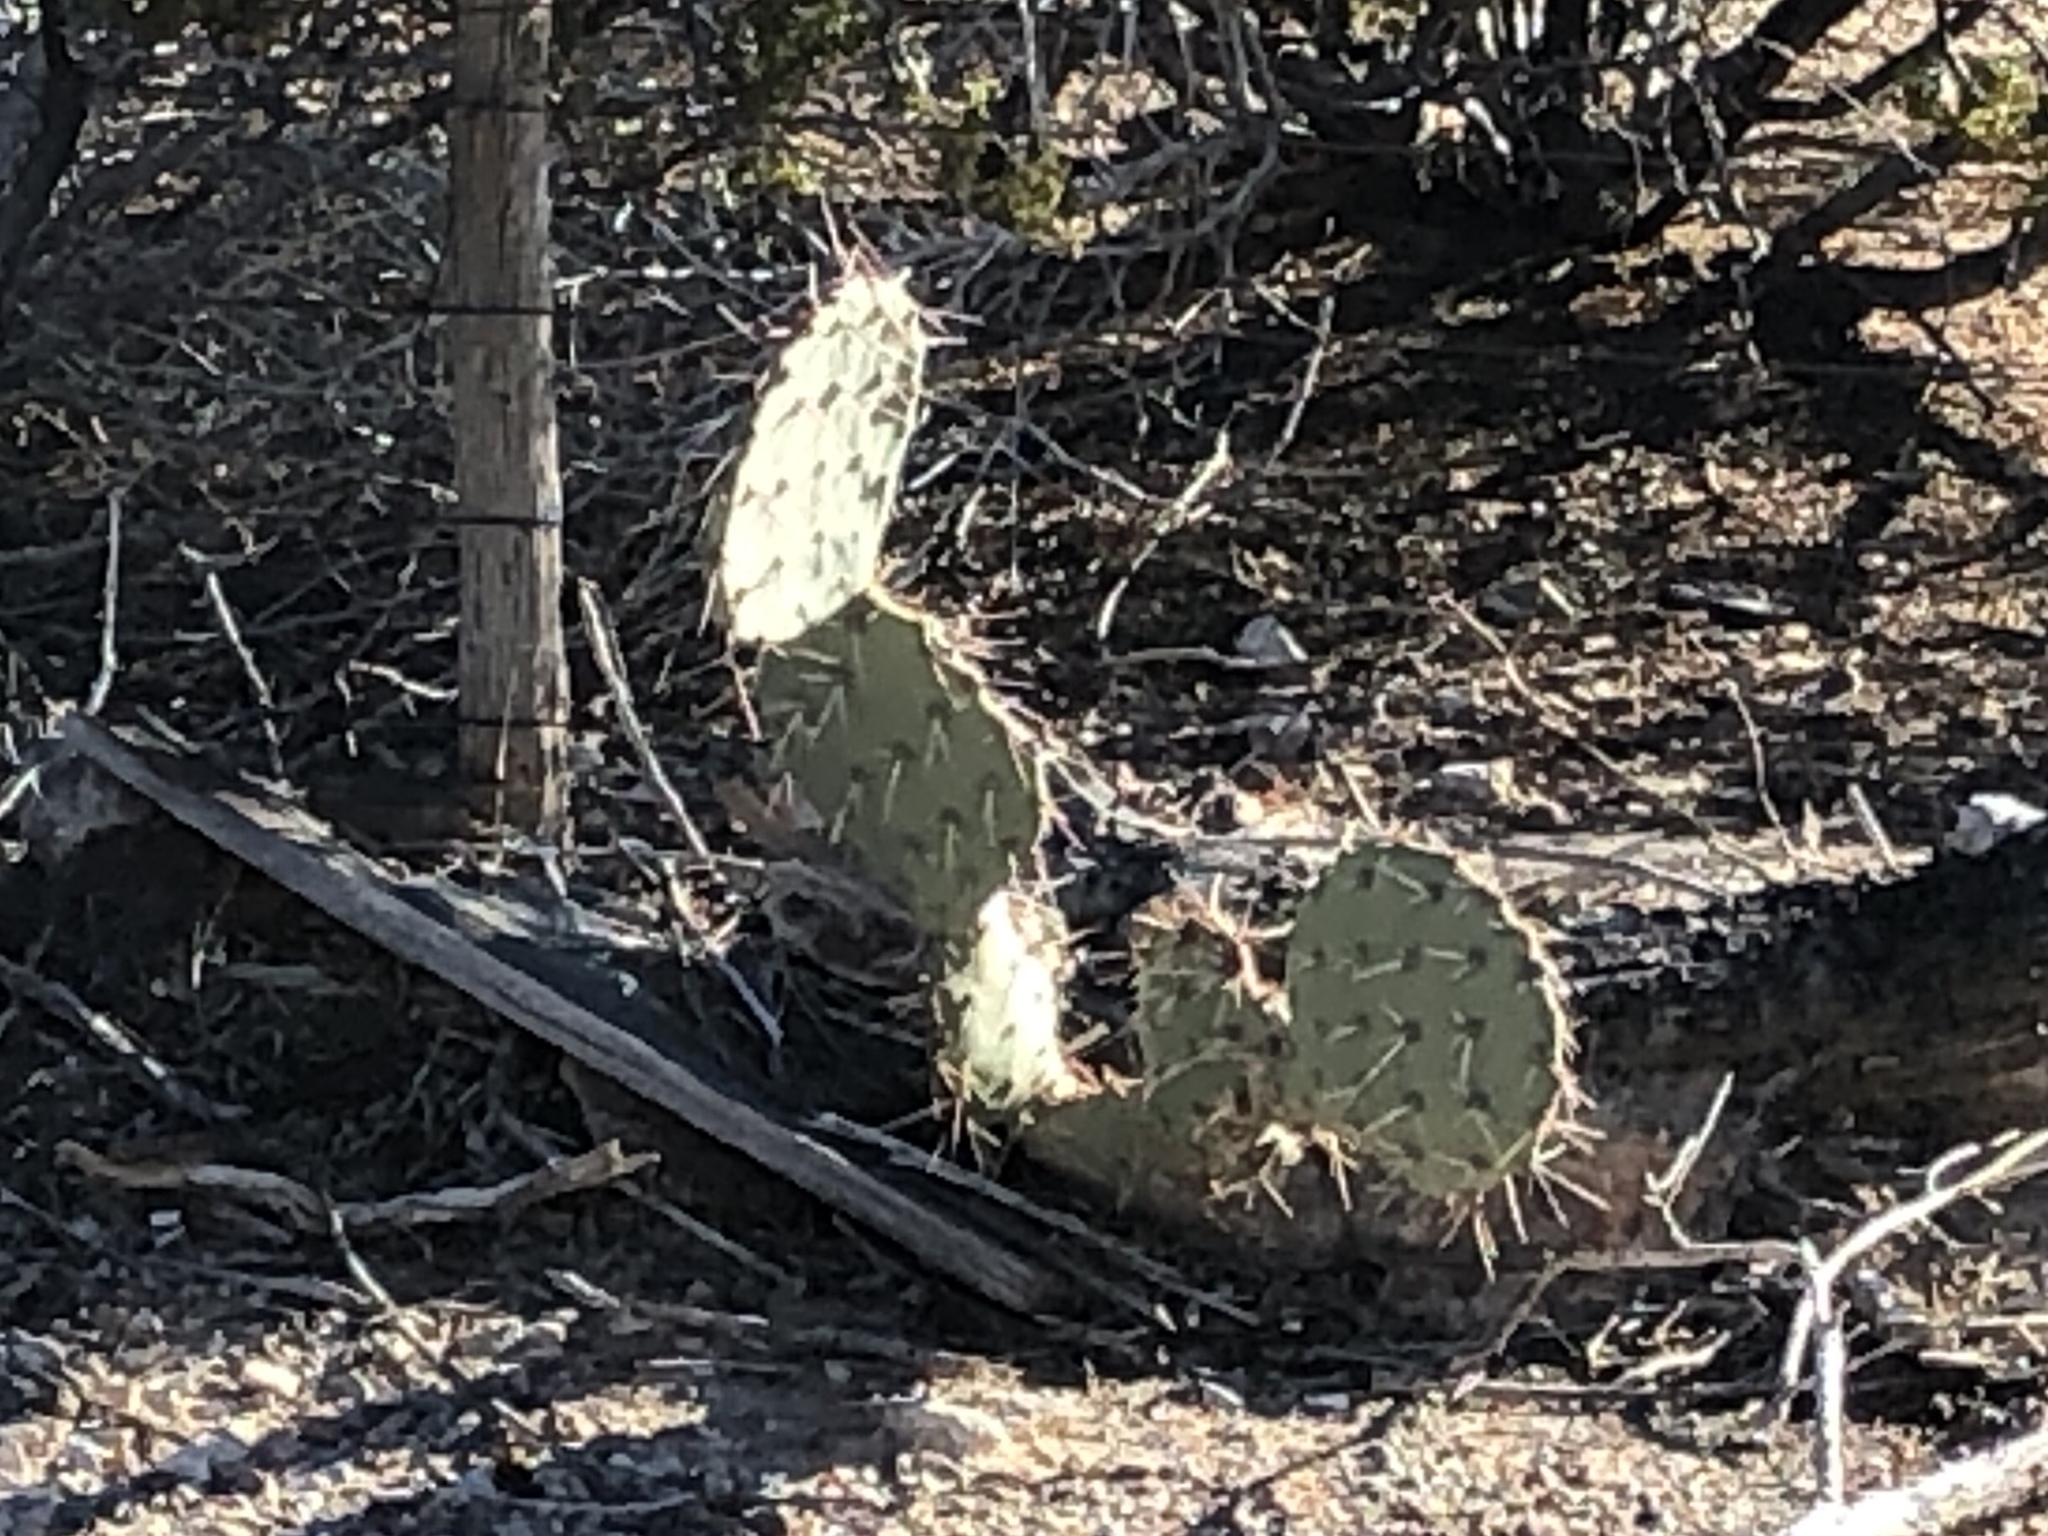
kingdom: Plantae
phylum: Tracheophyta
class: Magnoliopsida
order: Caryophyllales
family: Cactaceae
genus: Opuntia
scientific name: Opuntia engelmannii
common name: Cactus-apple
